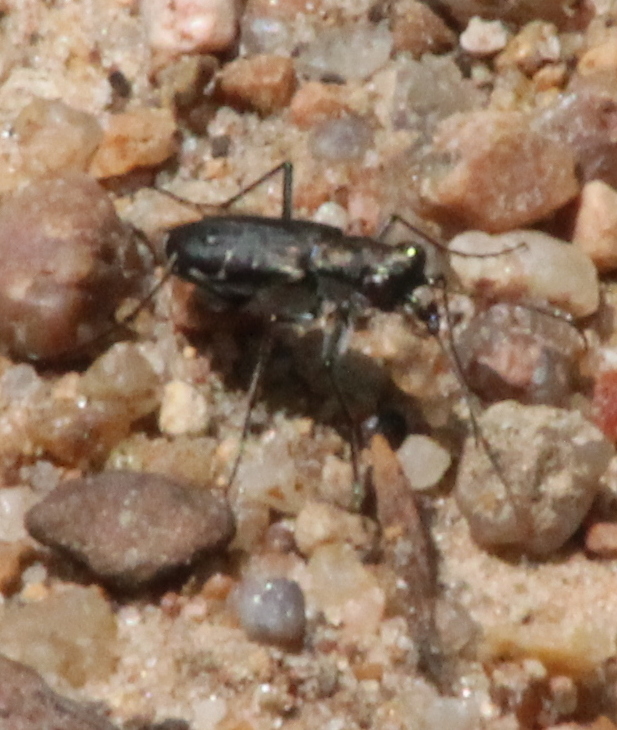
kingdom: Animalia
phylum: Arthropoda
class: Insecta
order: Coleoptera
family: Carabidae
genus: Cicindela
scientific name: Cicindela punctulata
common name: Punctured tiger beetle
